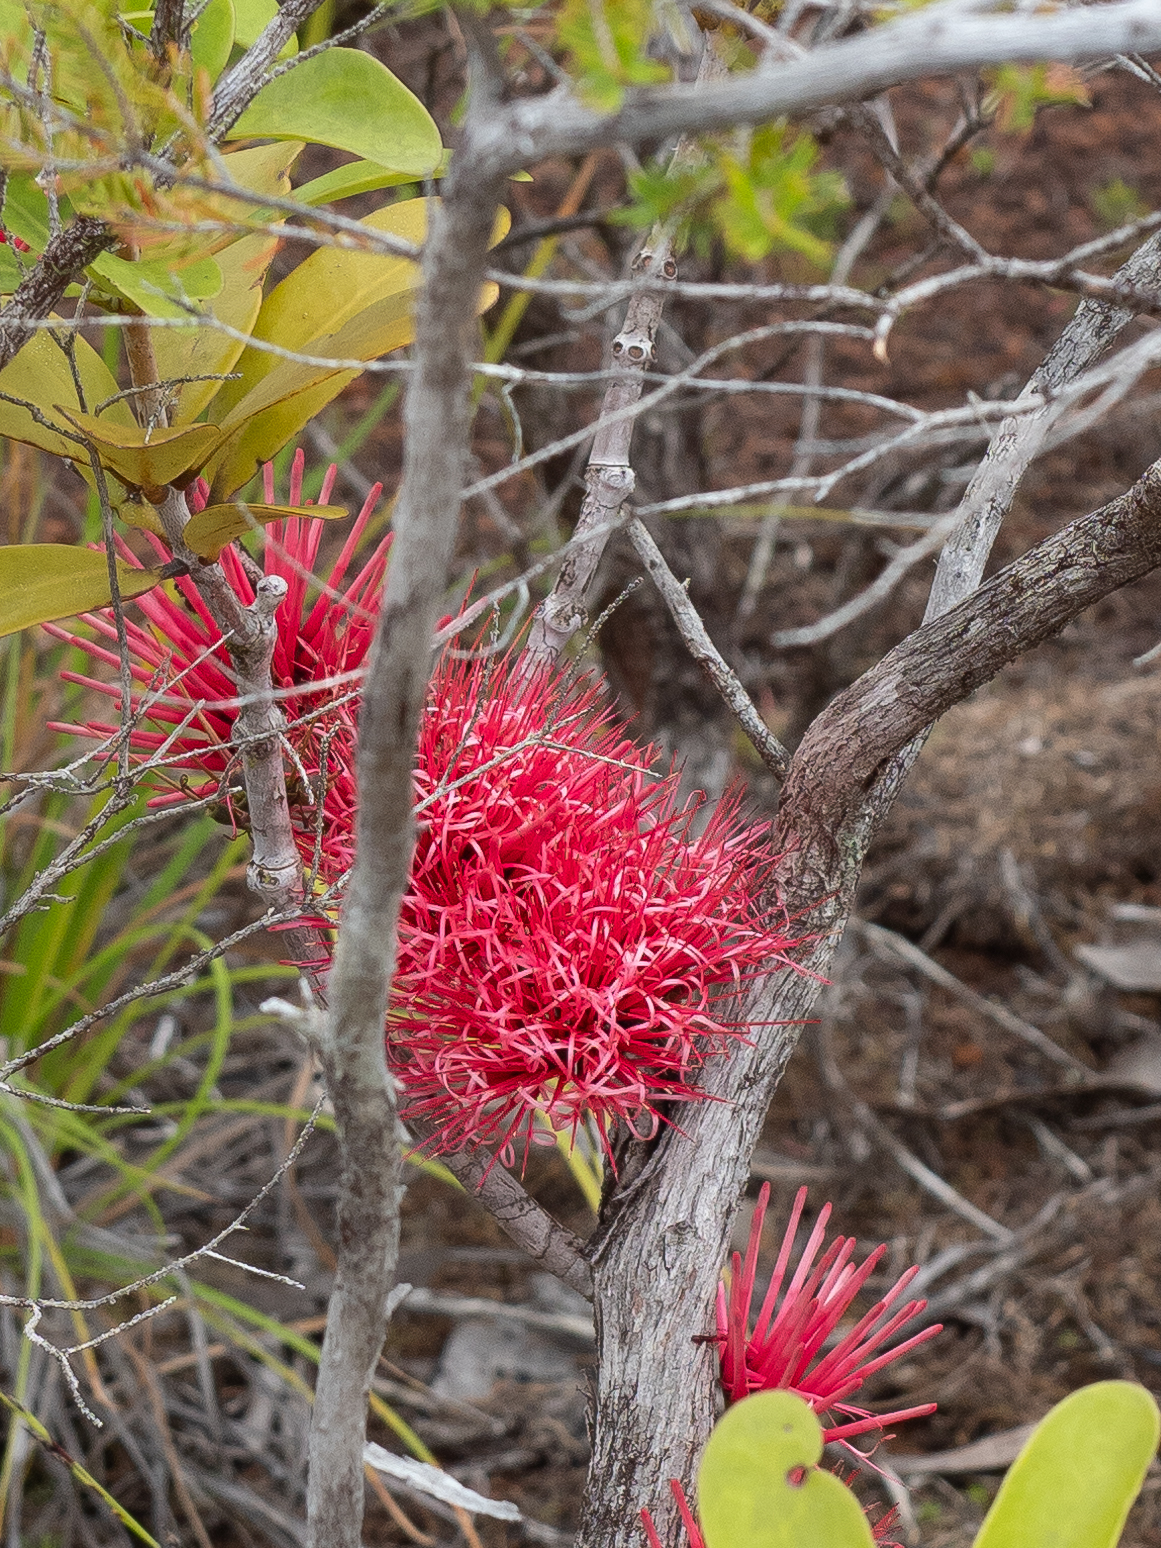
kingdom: Plantae
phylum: Tracheophyta
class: Magnoliopsida
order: Santalales
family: Loranthaceae
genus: Amyema
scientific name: Amyema scandens
